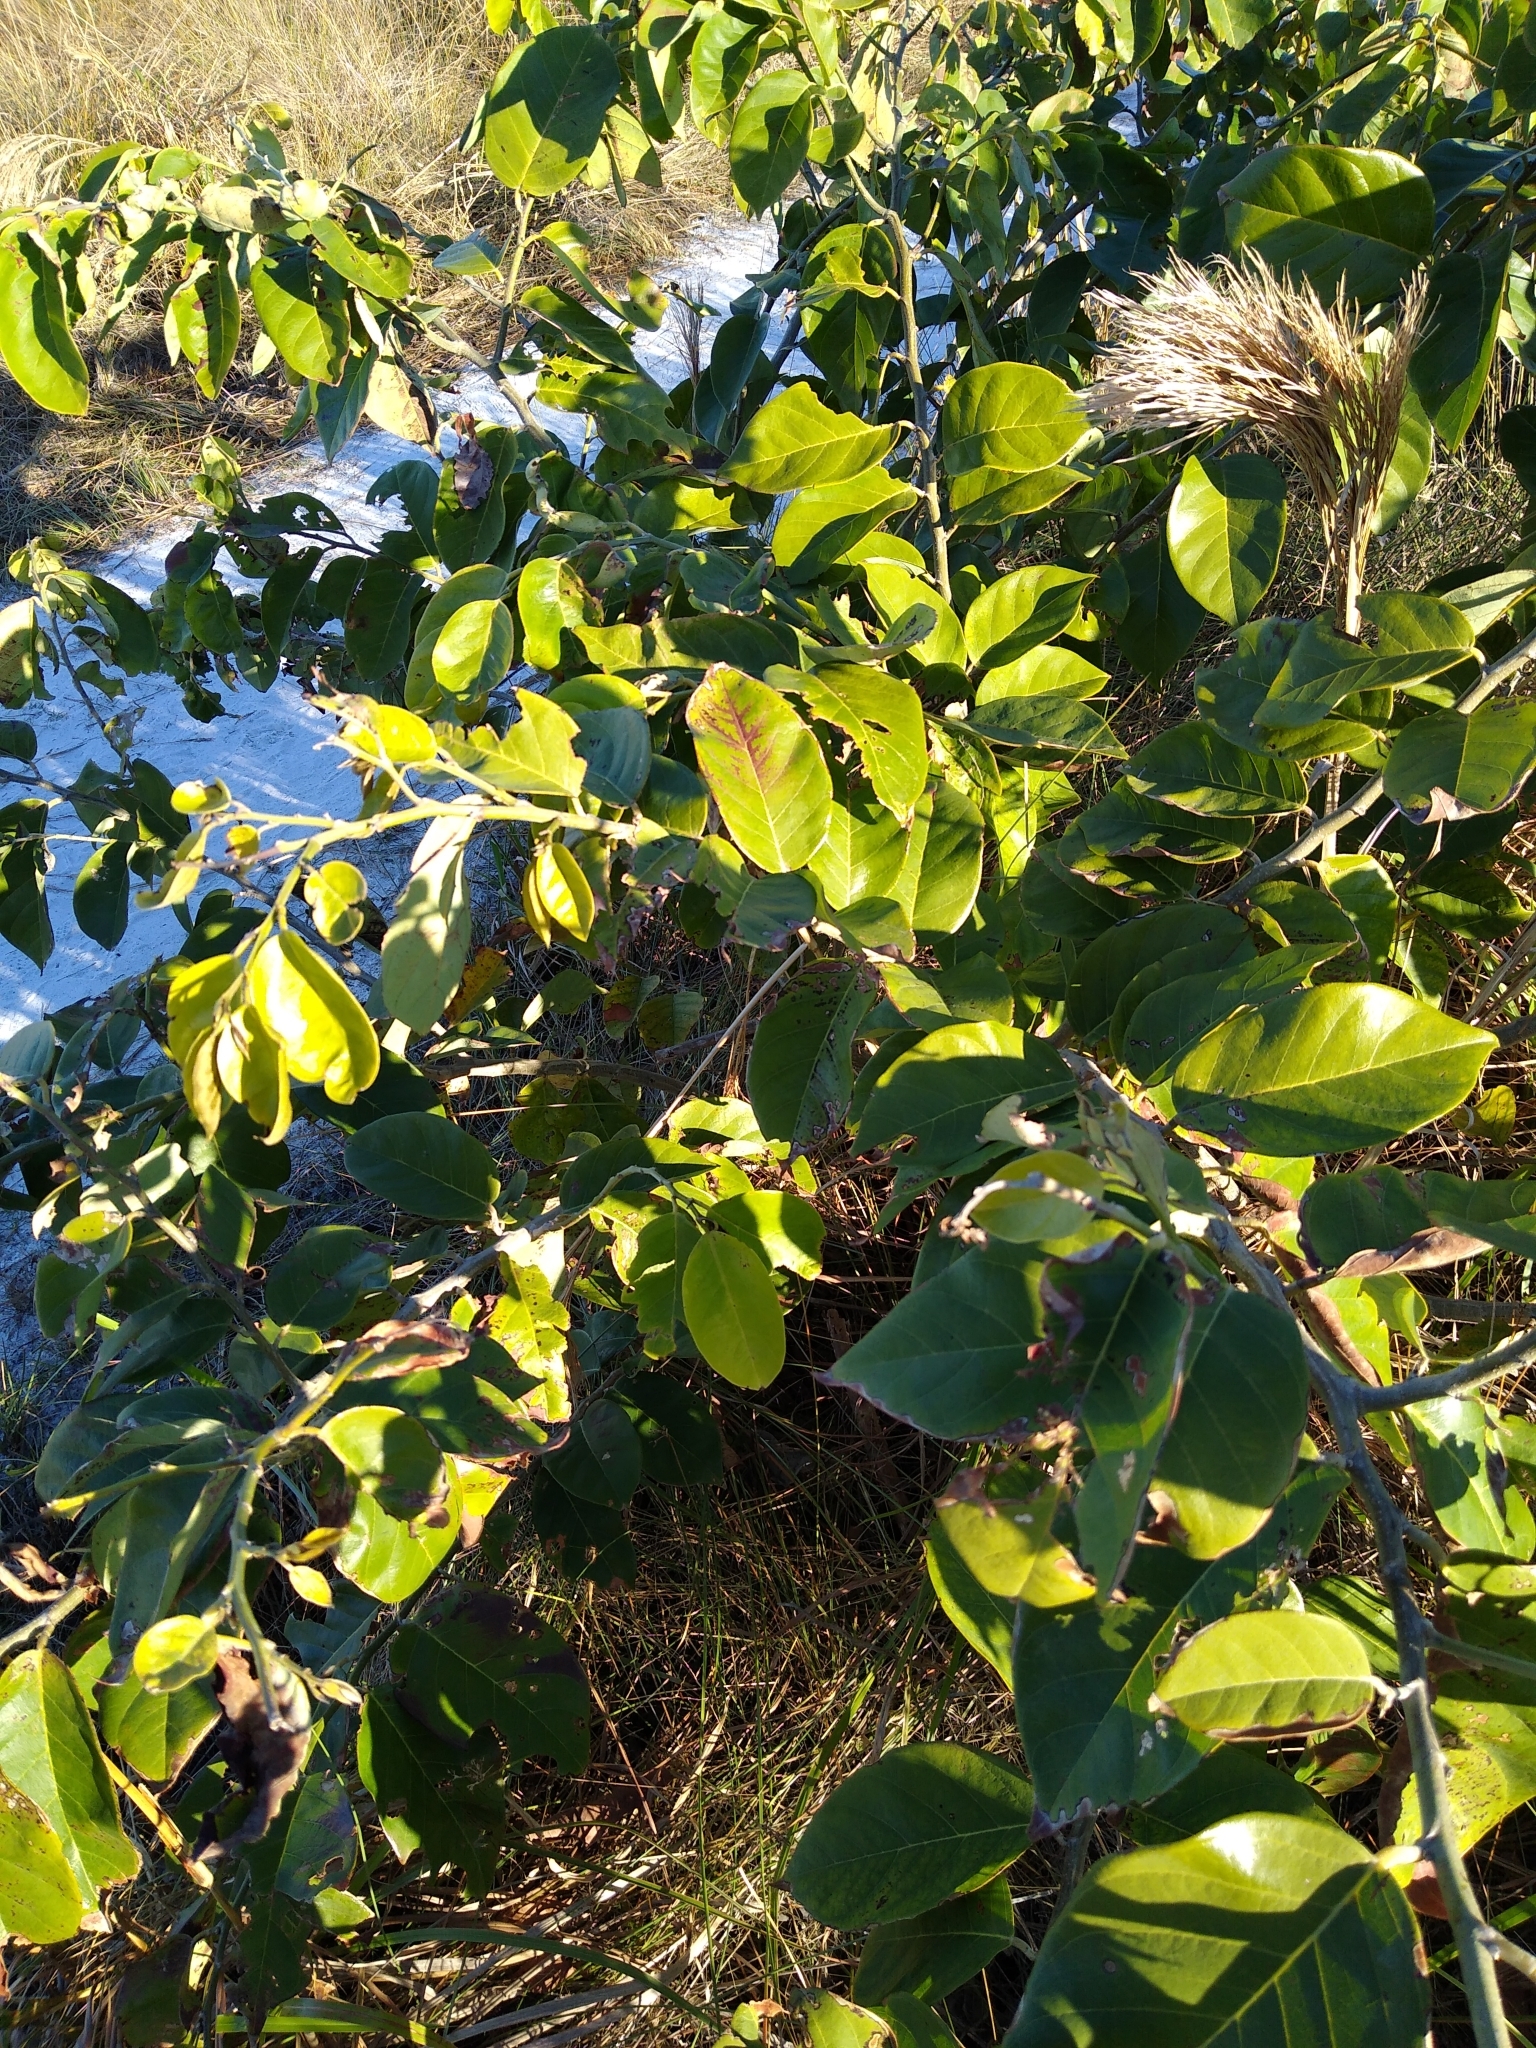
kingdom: Plantae
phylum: Tracheophyta
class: Magnoliopsida
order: Fabales
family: Fabaceae
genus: Dalbergia
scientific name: Dalbergia ecastaphyllum
